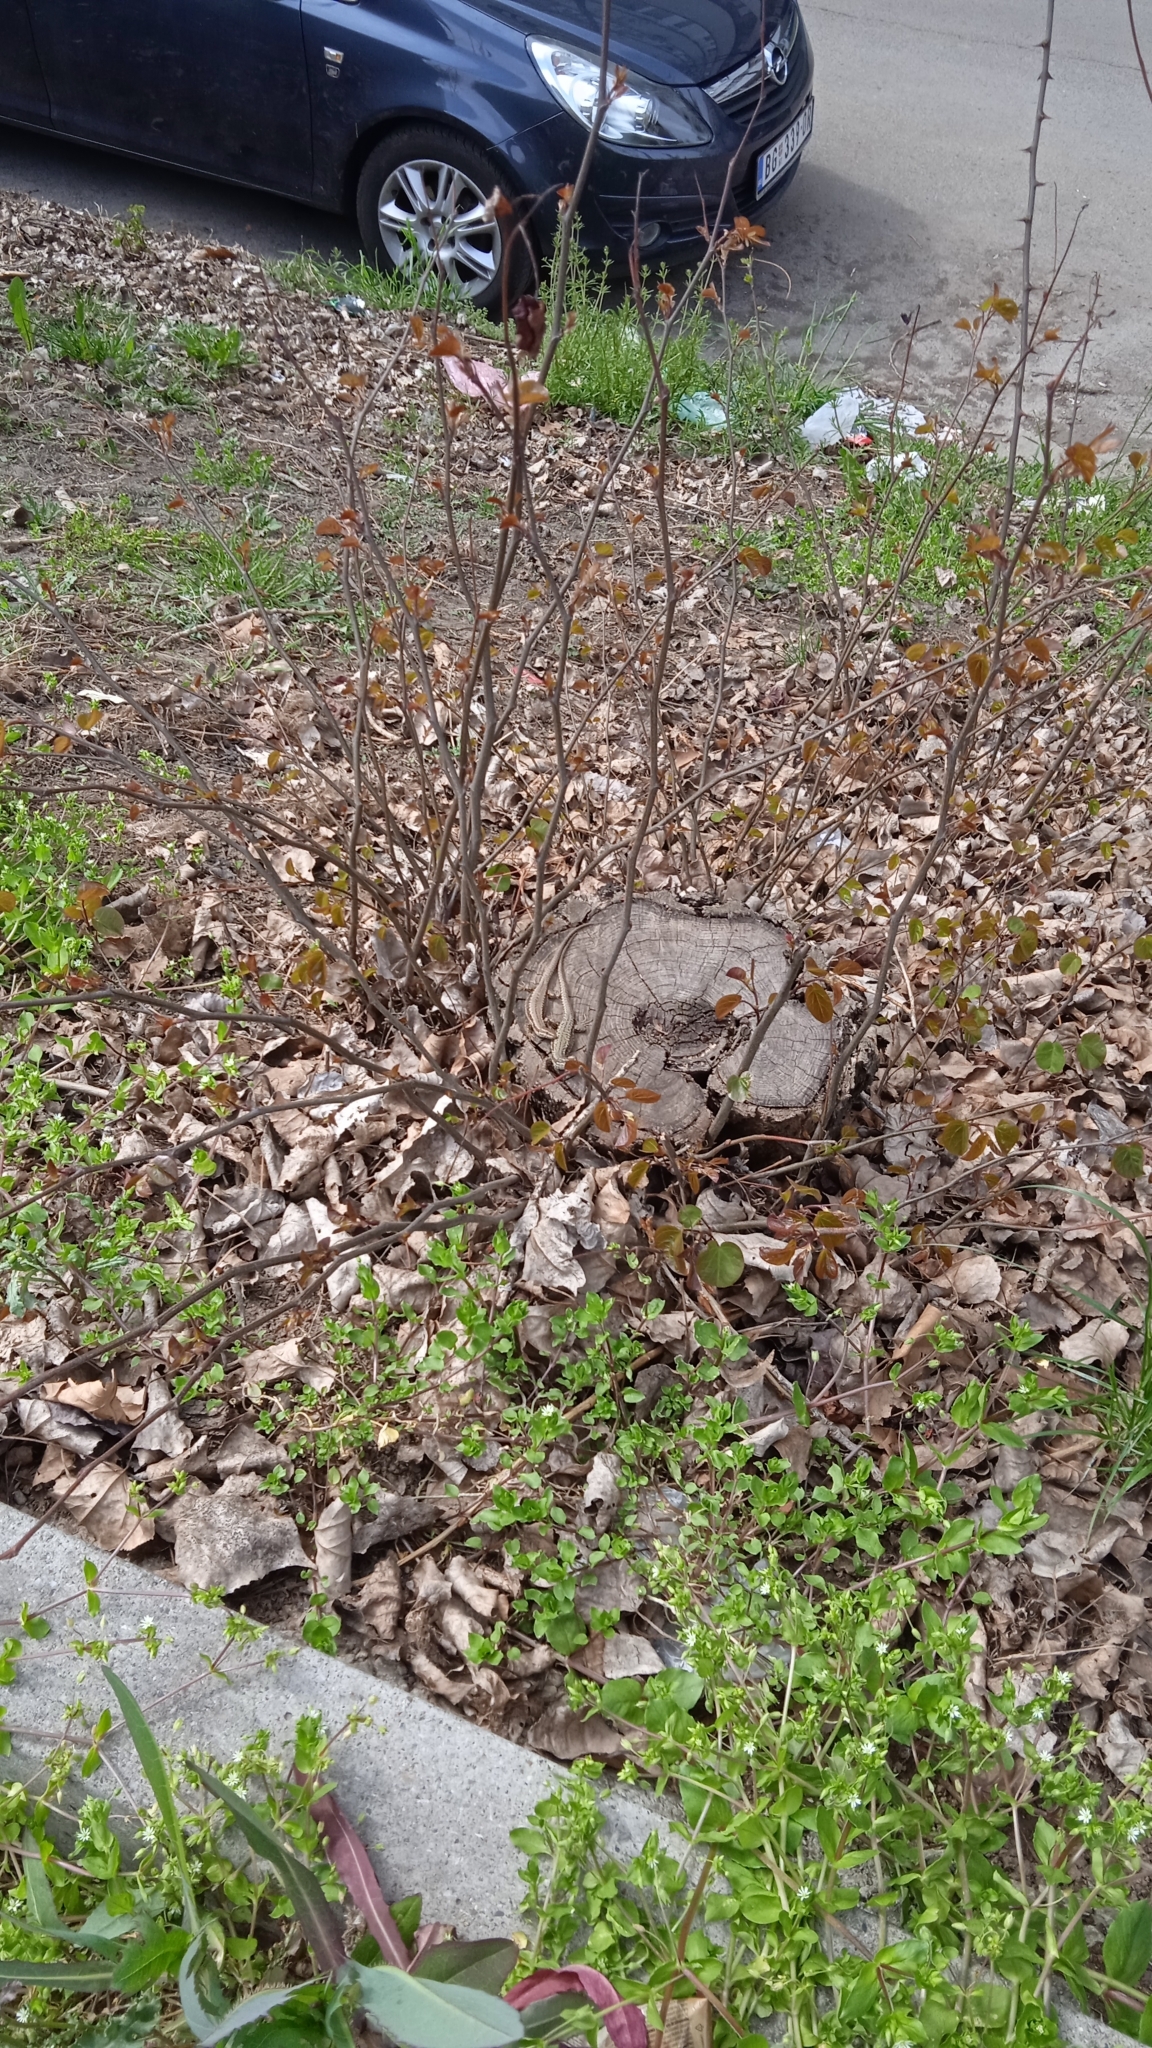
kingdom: Animalia
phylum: Chordata
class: Squamata
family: Lacertidae
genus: Podarcis
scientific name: Podarcis muralis
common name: Common wall lizard
